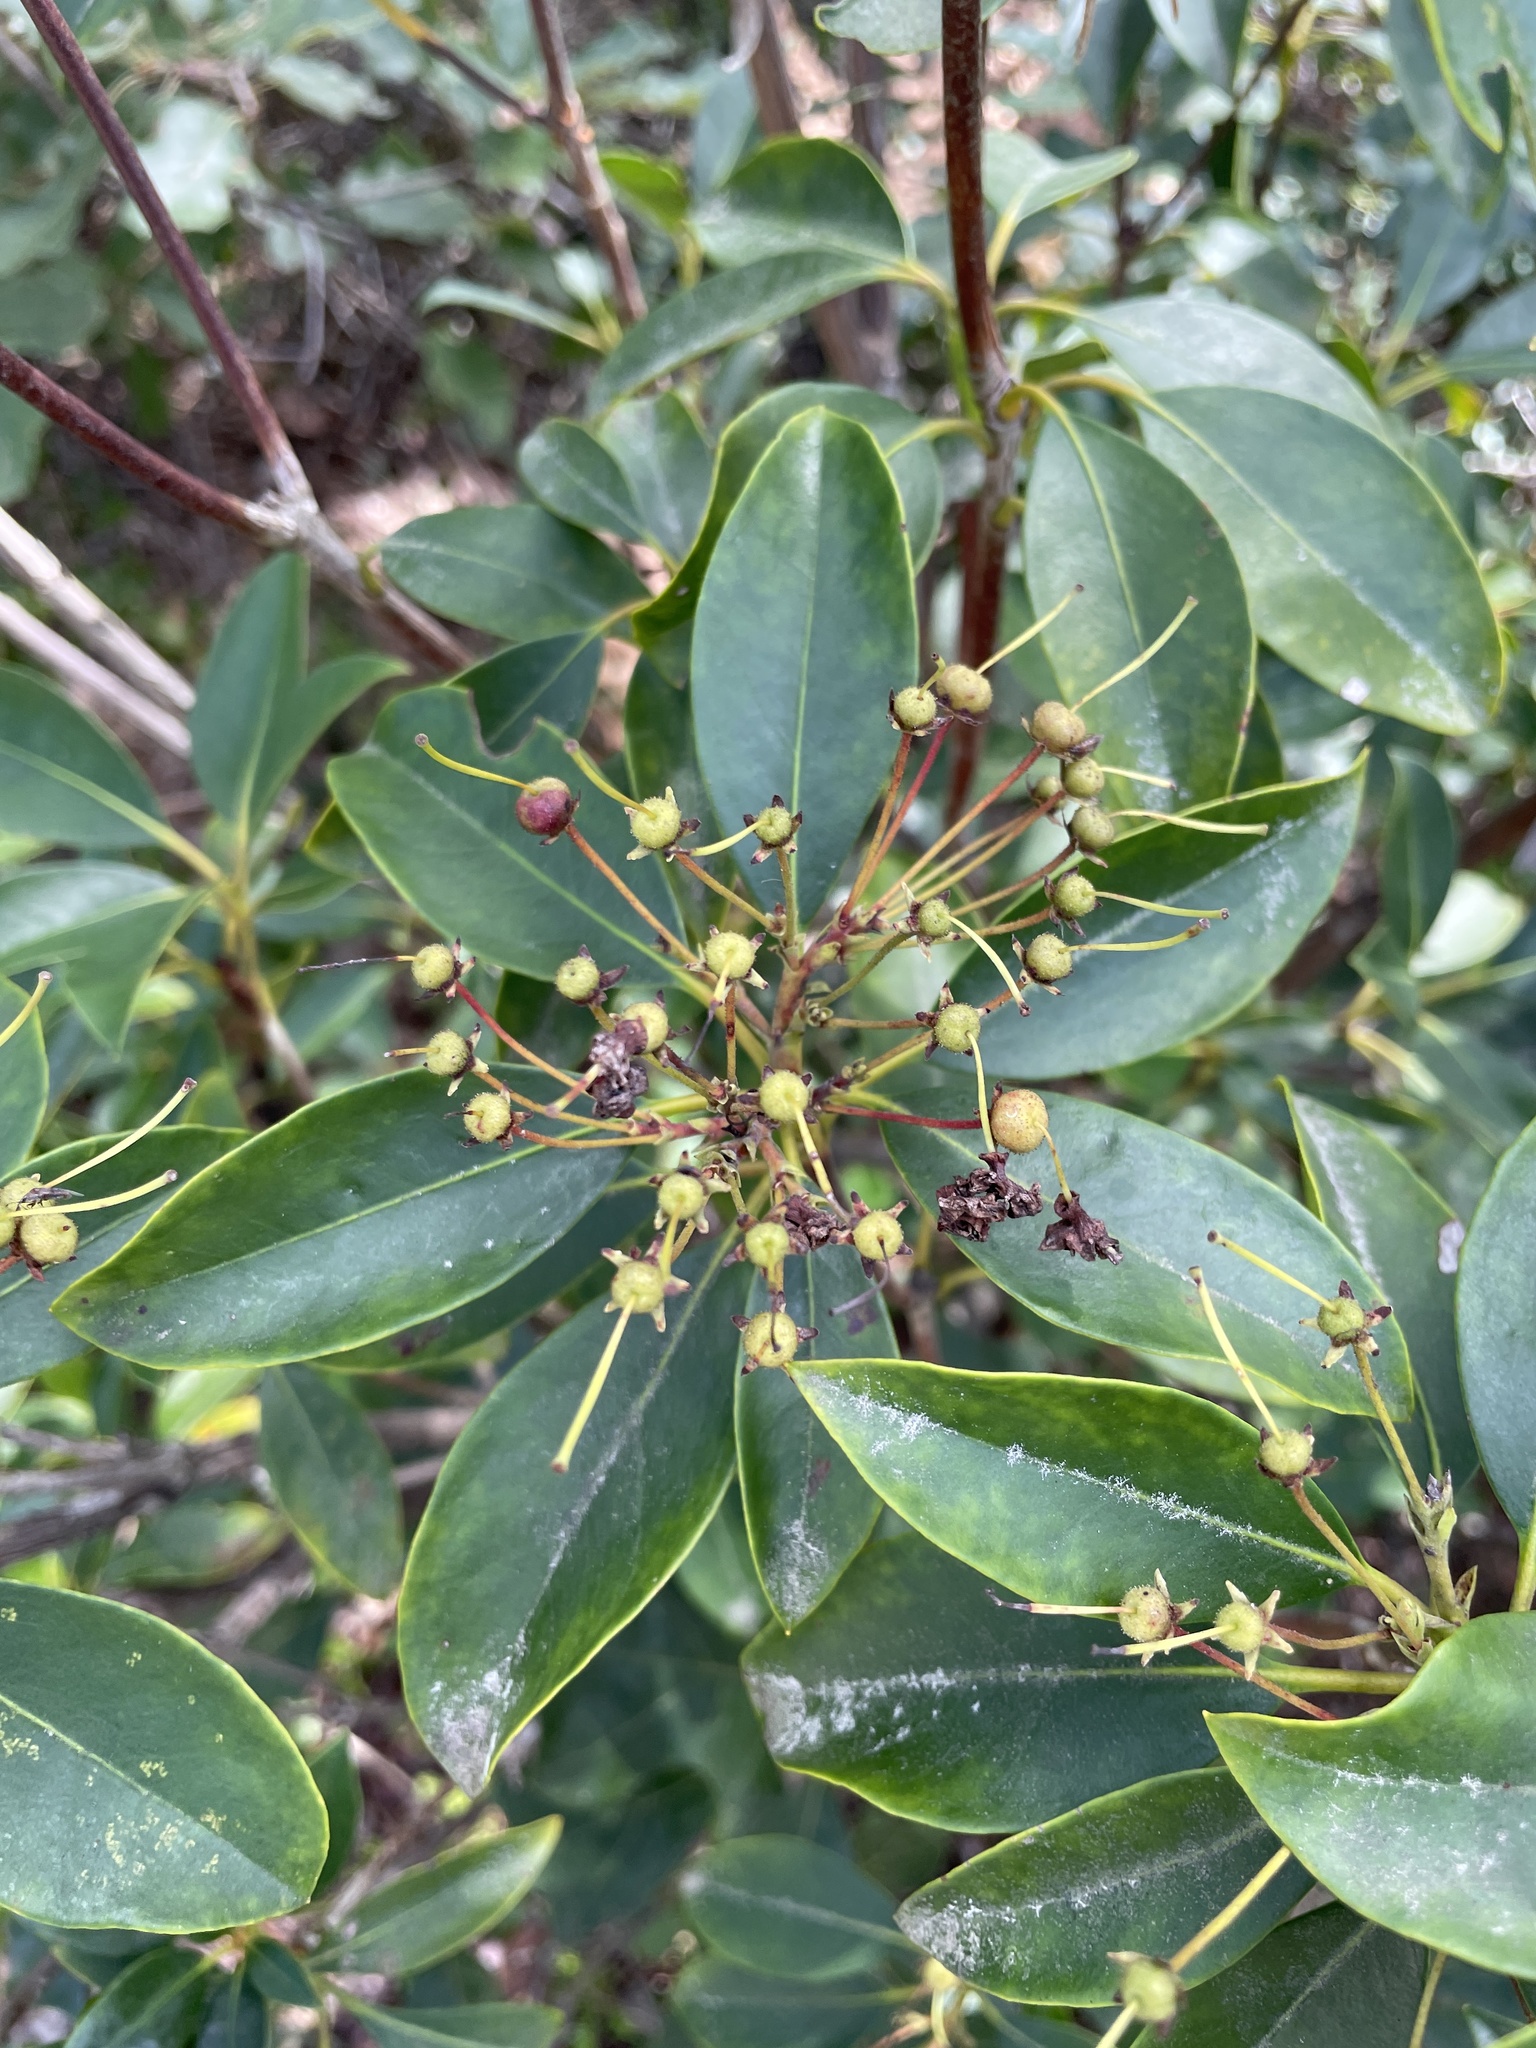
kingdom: Plantae
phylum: Tracheophyta
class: Magnoliopsida
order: Ericales
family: Ericaceae
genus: Kalmia
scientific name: Kalmia latifolia
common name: Mountain-laurel
